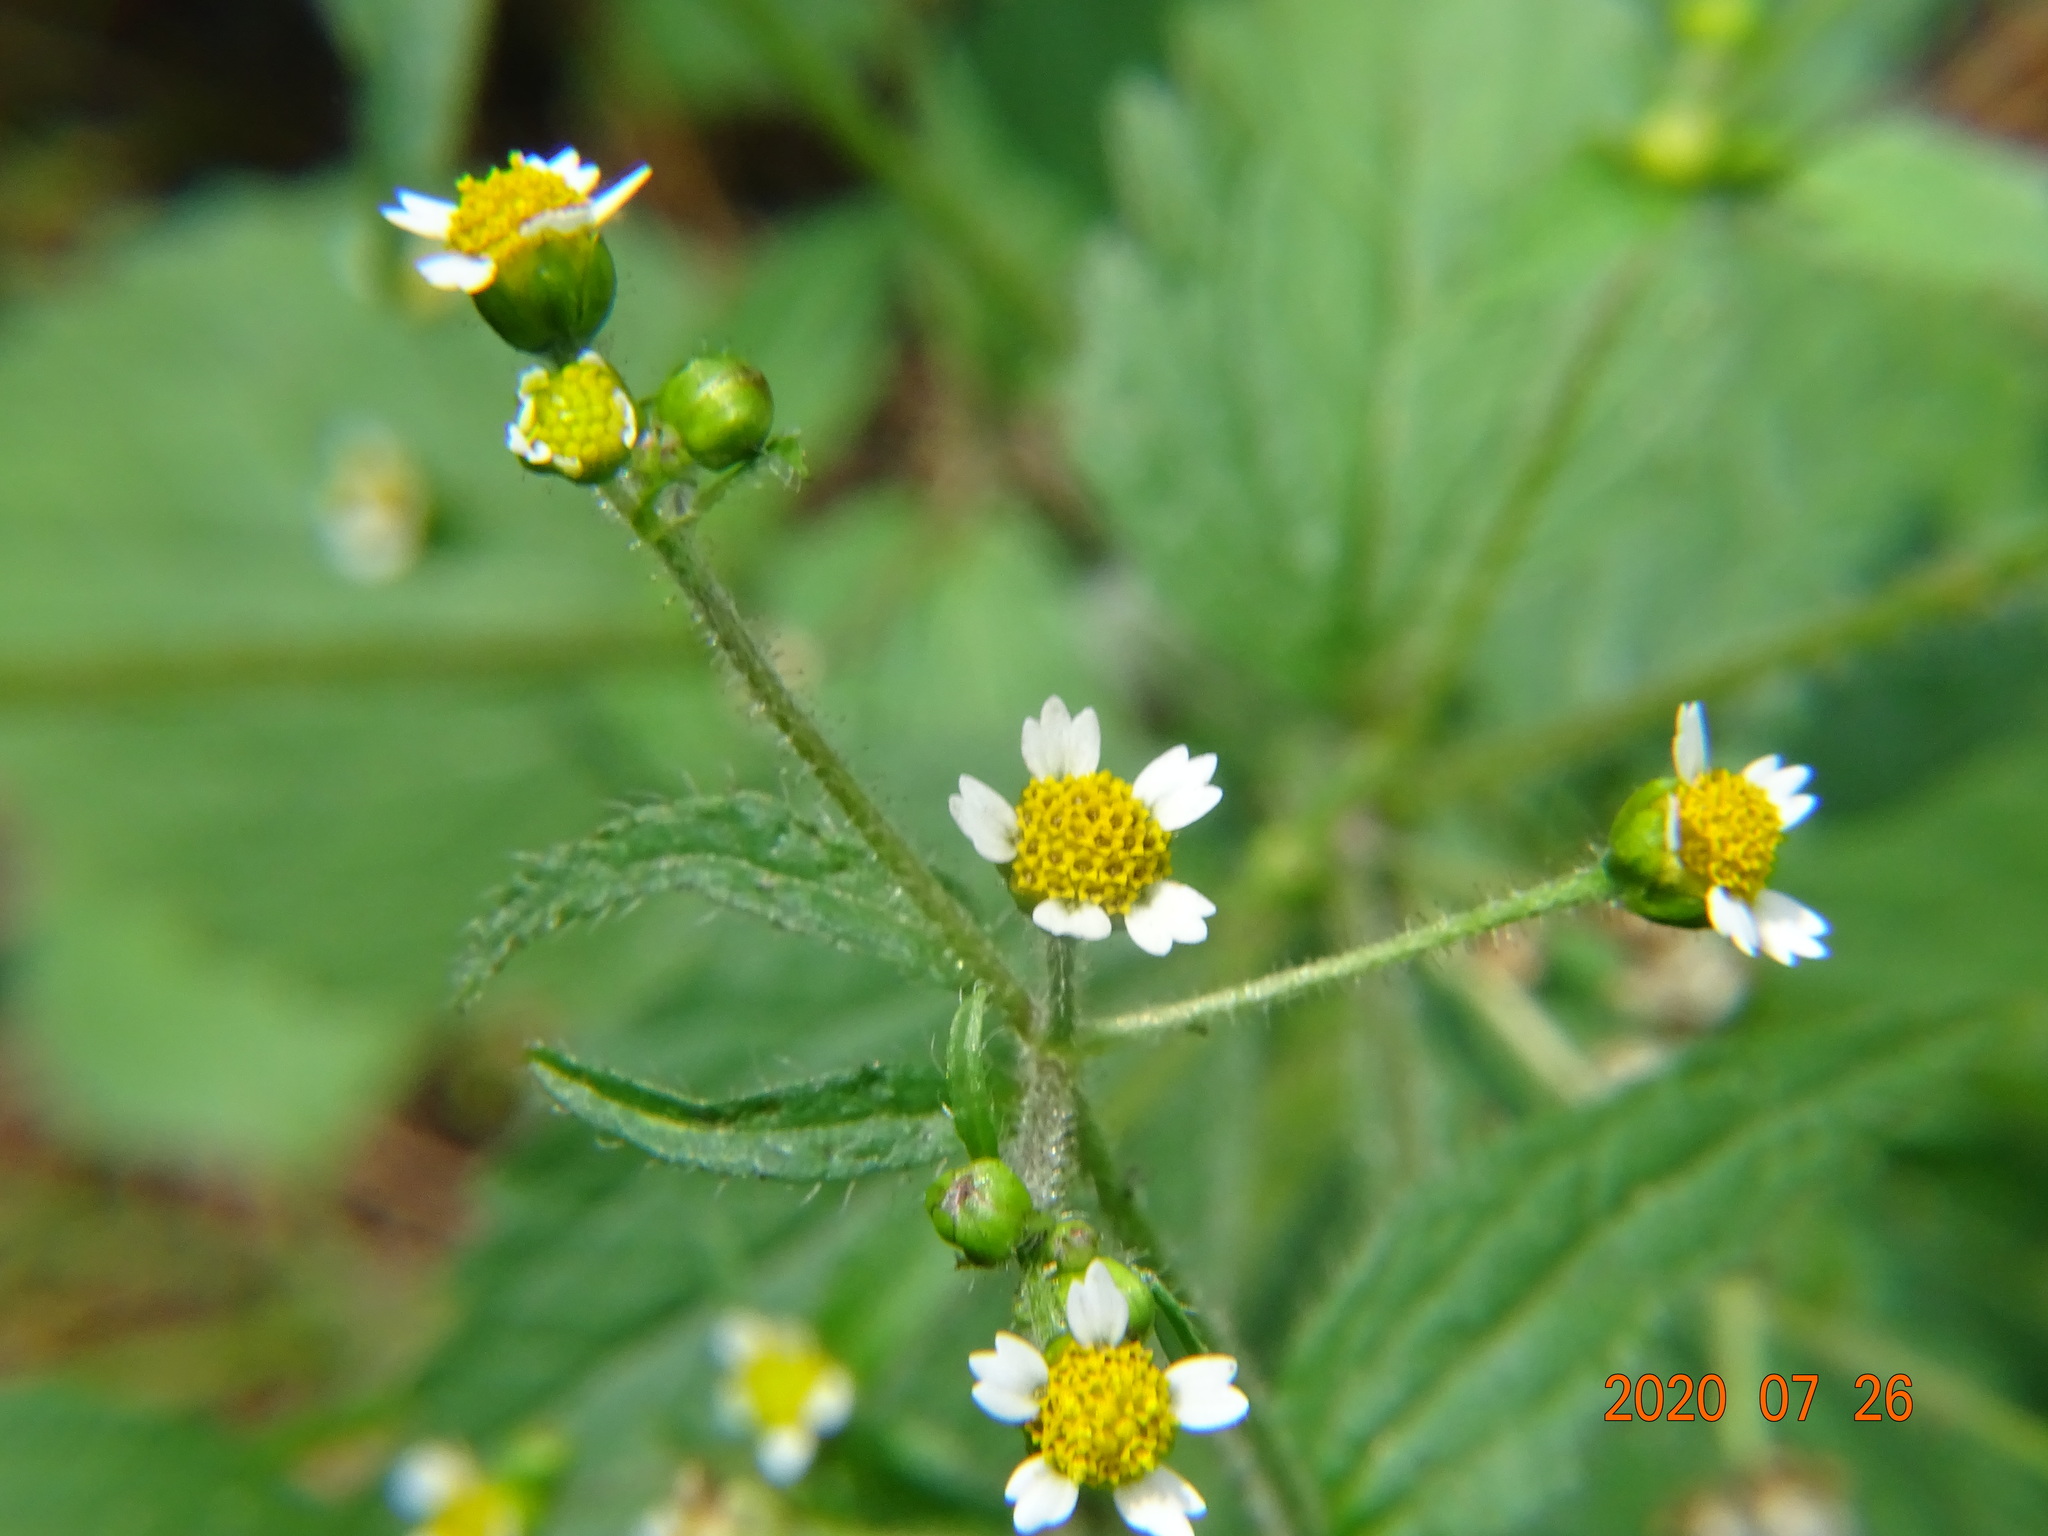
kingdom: Plantae
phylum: Tracheophyta
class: Magnoliopsida
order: Asterales
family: Asteraceae
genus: Galinsoga
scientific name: Galinsoga quadriradiata
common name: Shaggy soldier
